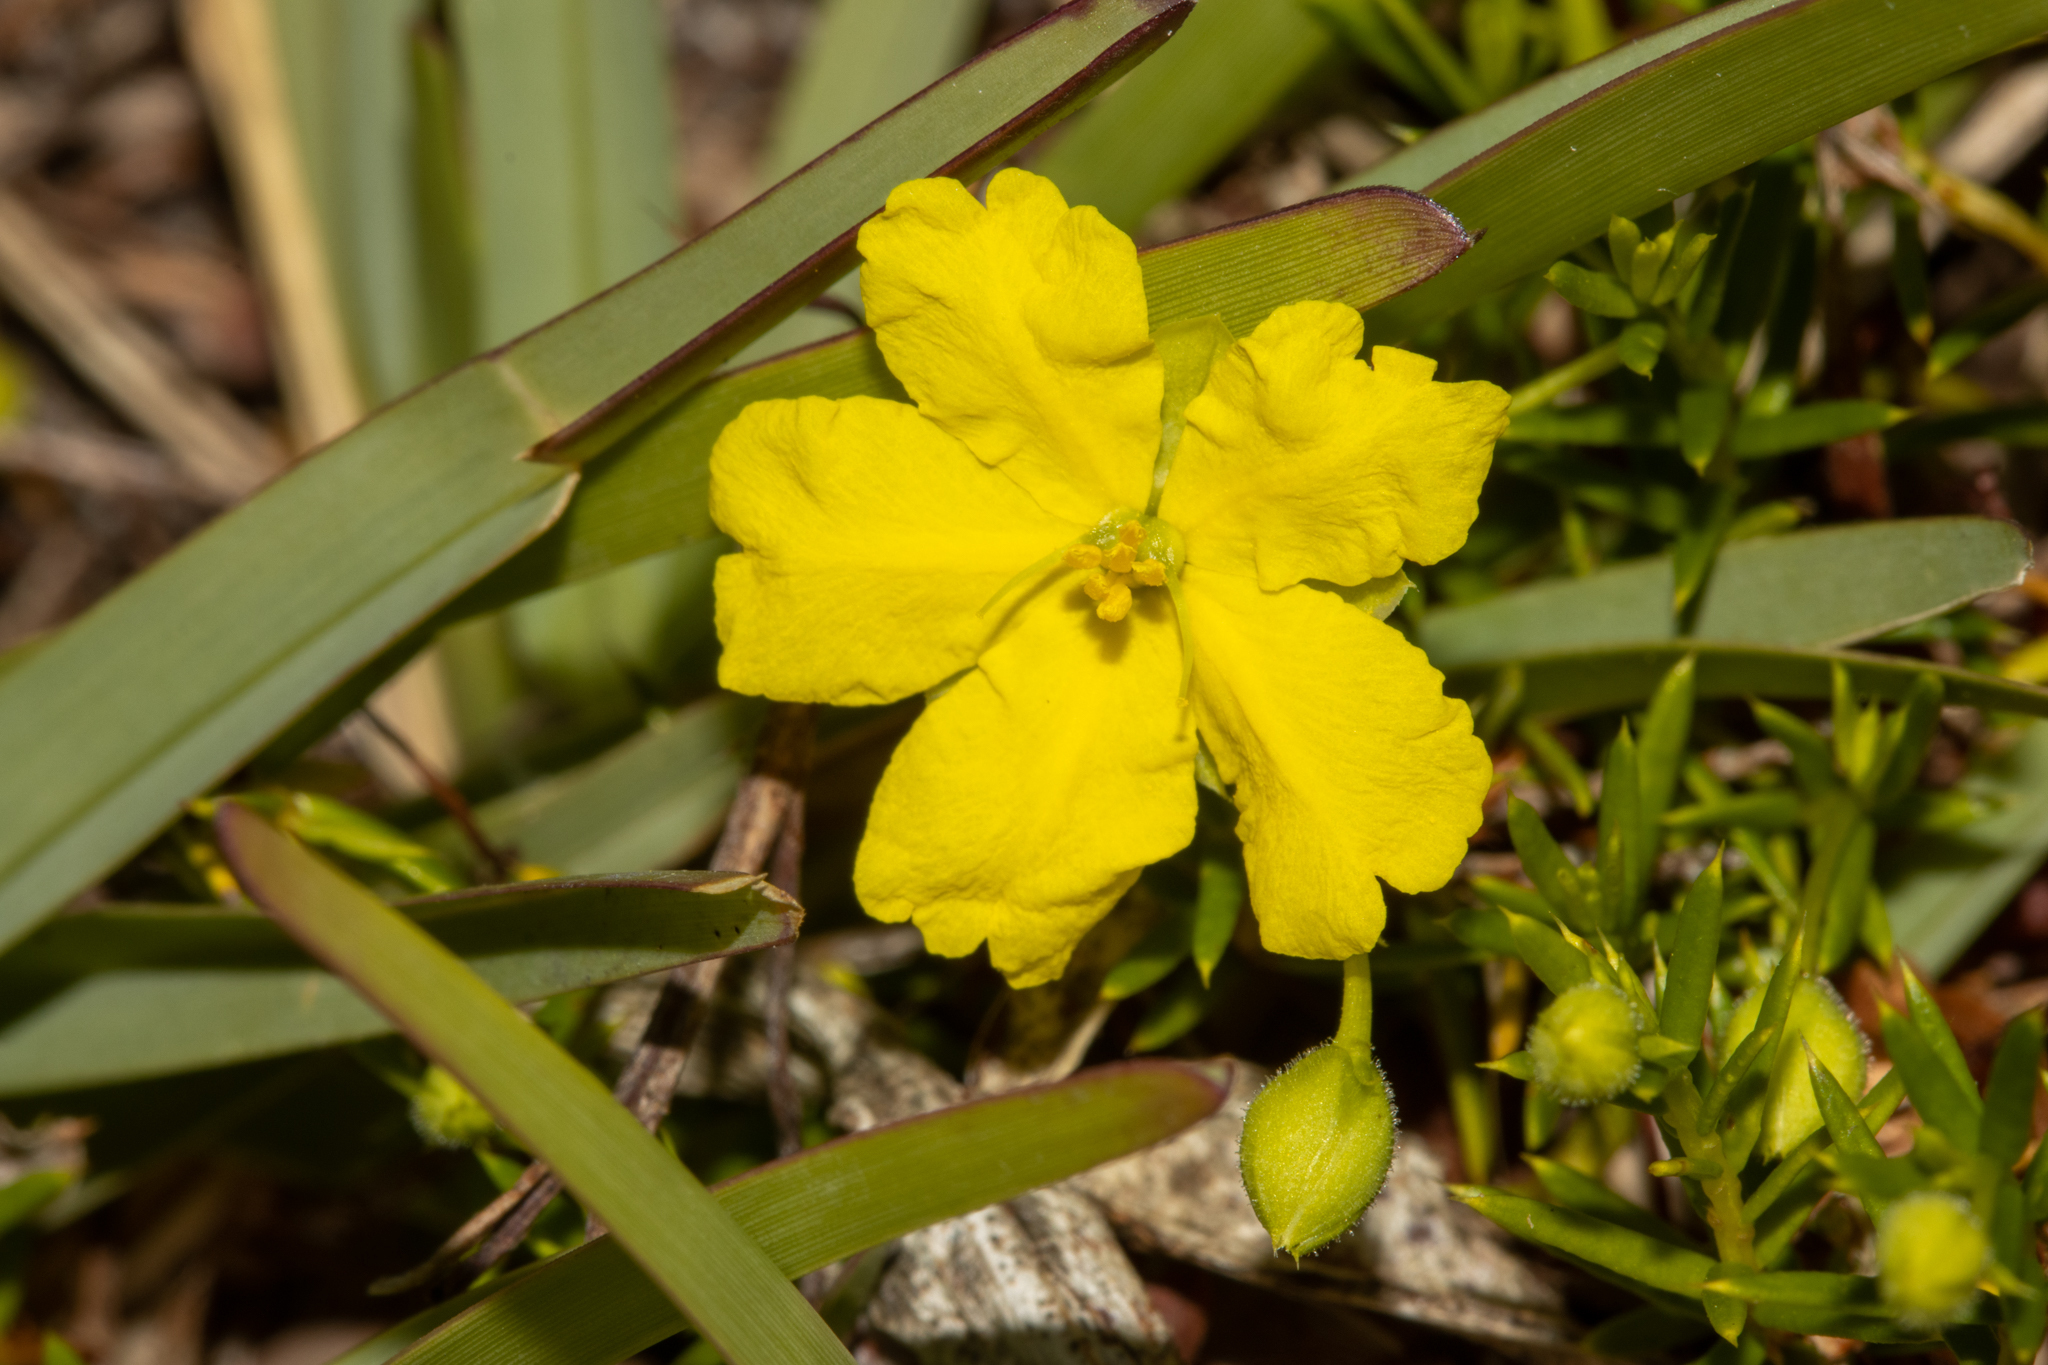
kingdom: Plantae
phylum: Tracheophyta
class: Magnoliopsida
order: Dilleniales
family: Dilleniaceae
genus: Hibbertia
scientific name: Hibbertia
